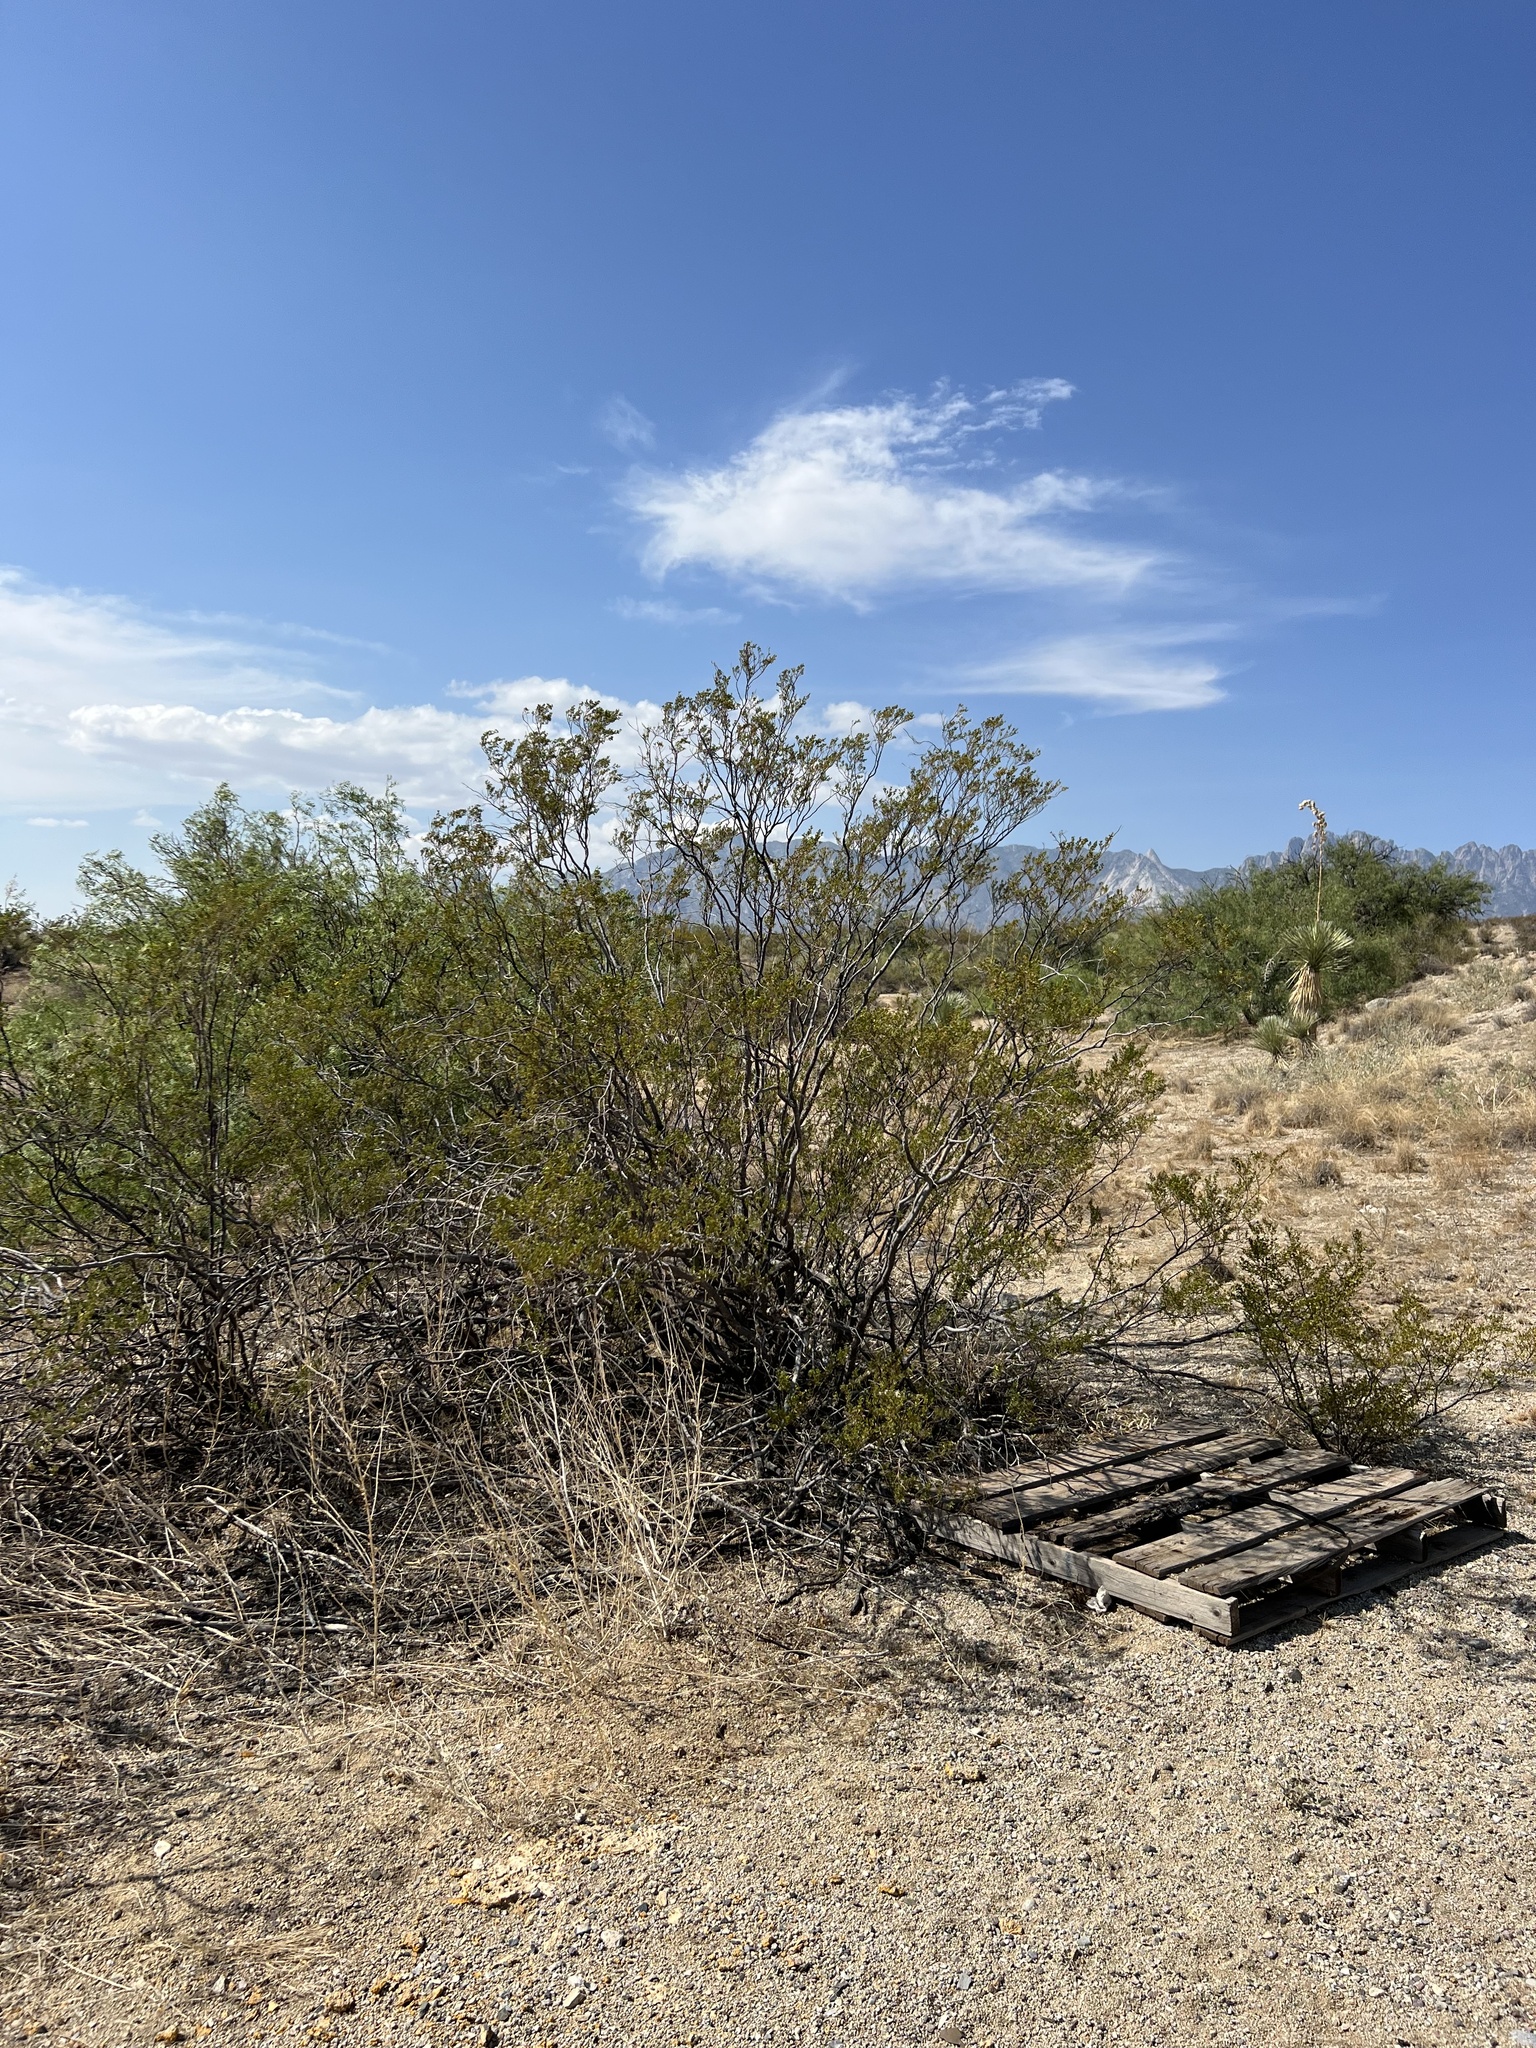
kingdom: Plantae
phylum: Tracheophyta
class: Magnoliopsida
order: Zygophyllales
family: Zygophyllaceae
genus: Larrea
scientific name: Larrea tridentata
